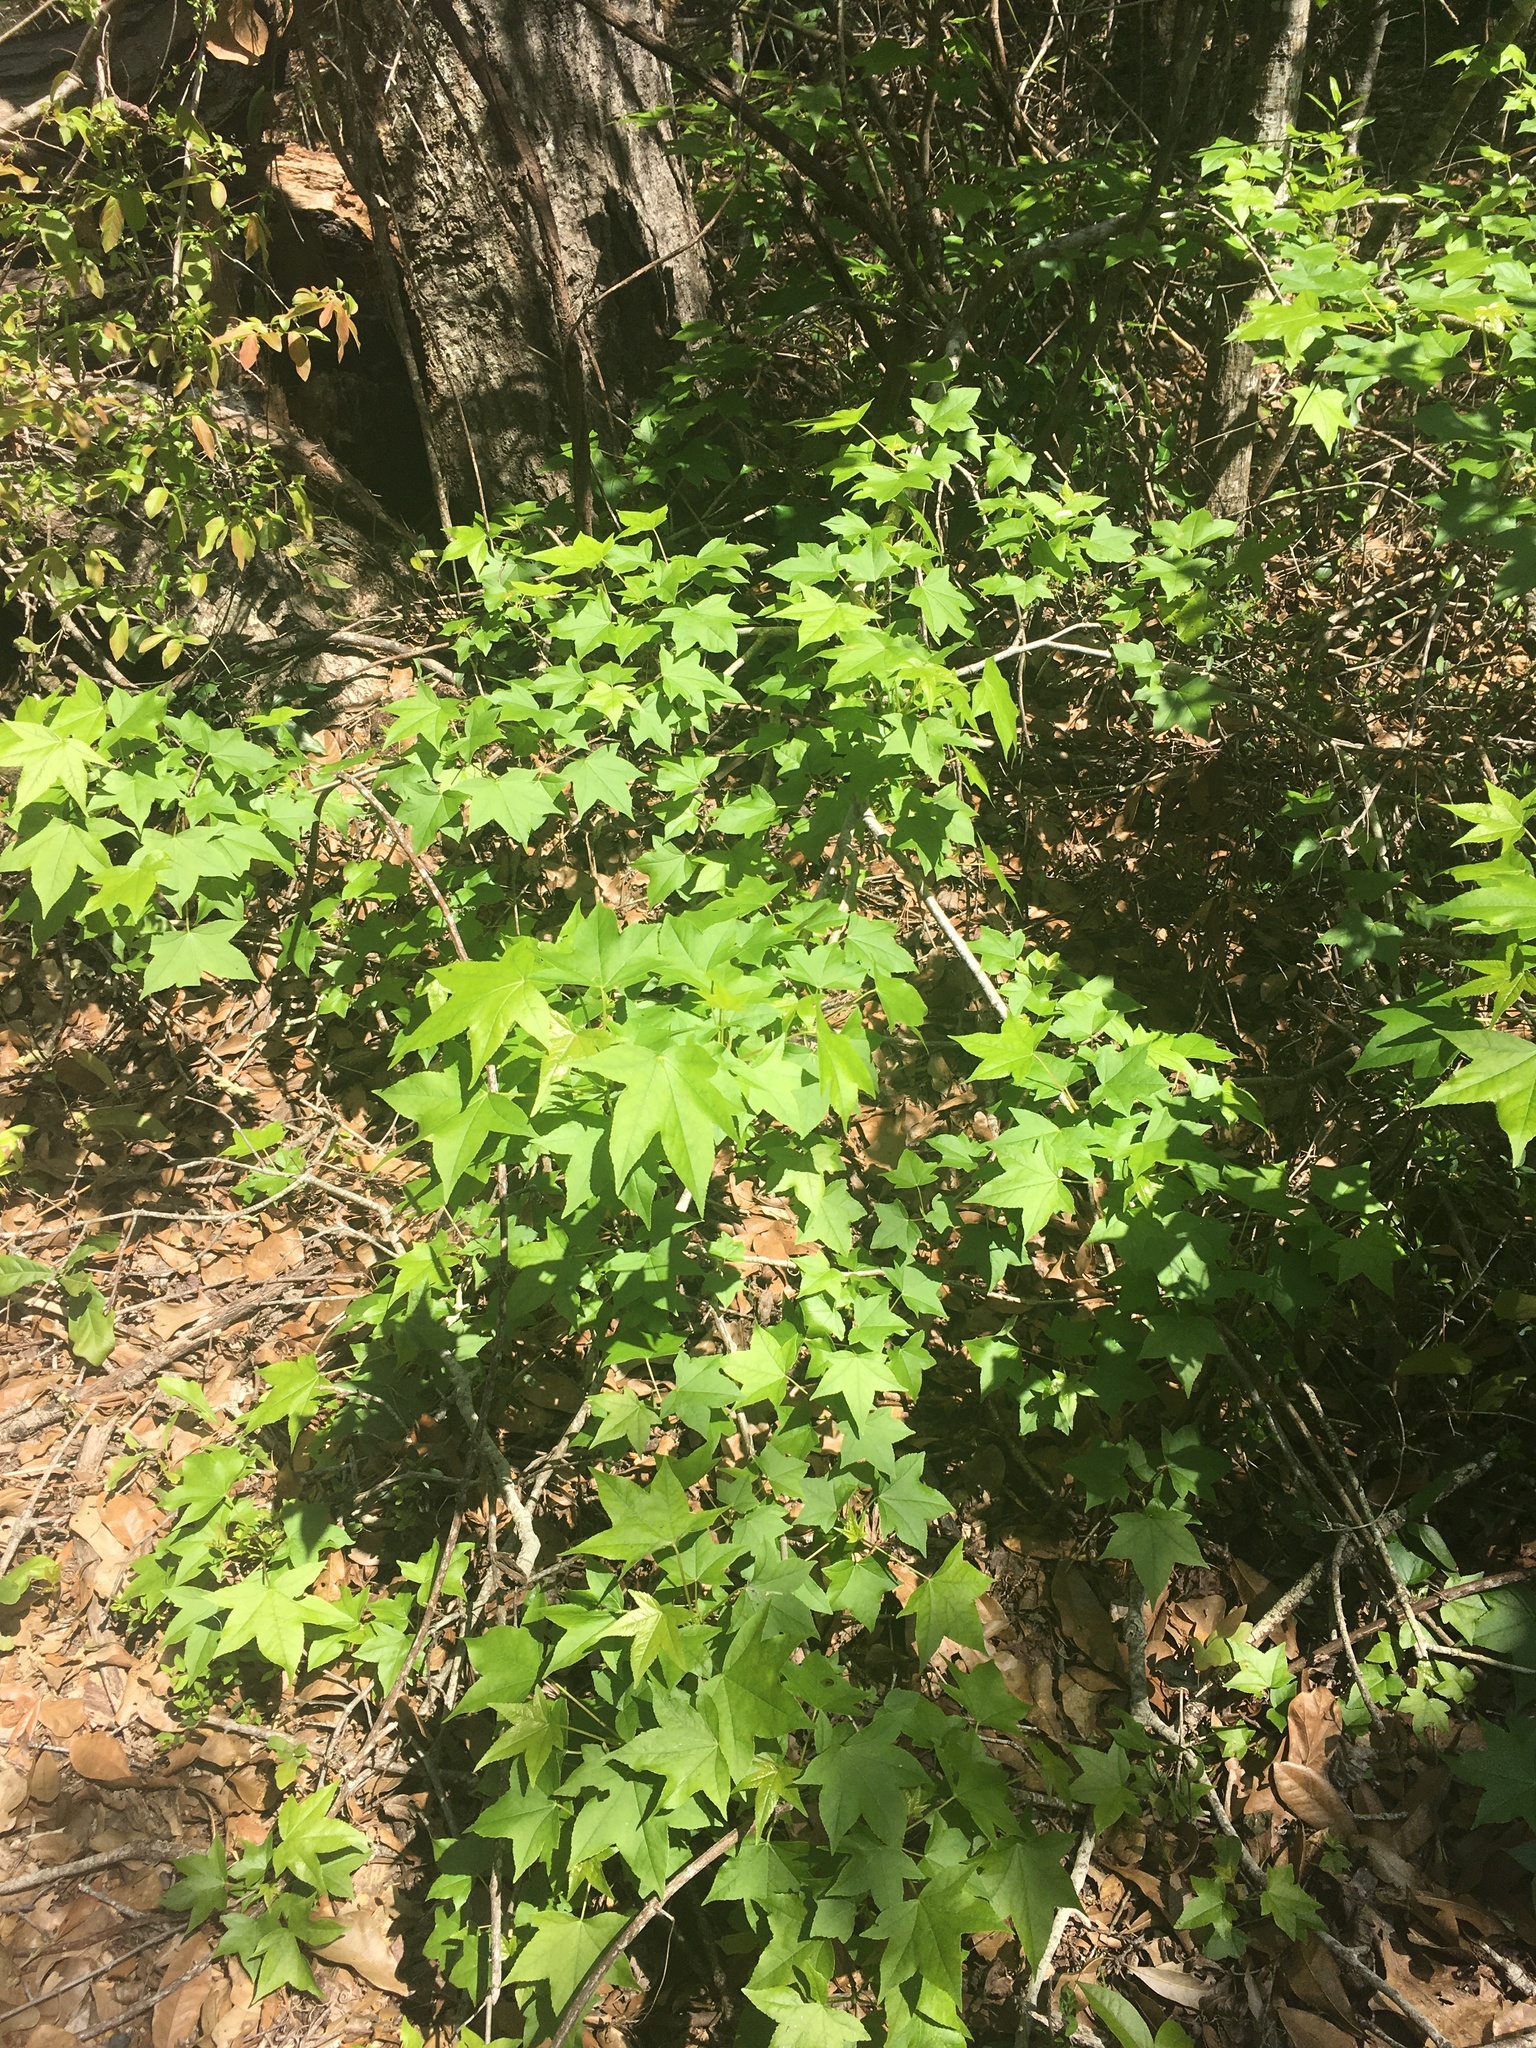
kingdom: Plantae
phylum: Tracheophyta
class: Magnoliopsida
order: Saxifragales
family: Altingiaceae
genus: Liquidambar
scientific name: Liquidambar styraciflua
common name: Sweet gum
